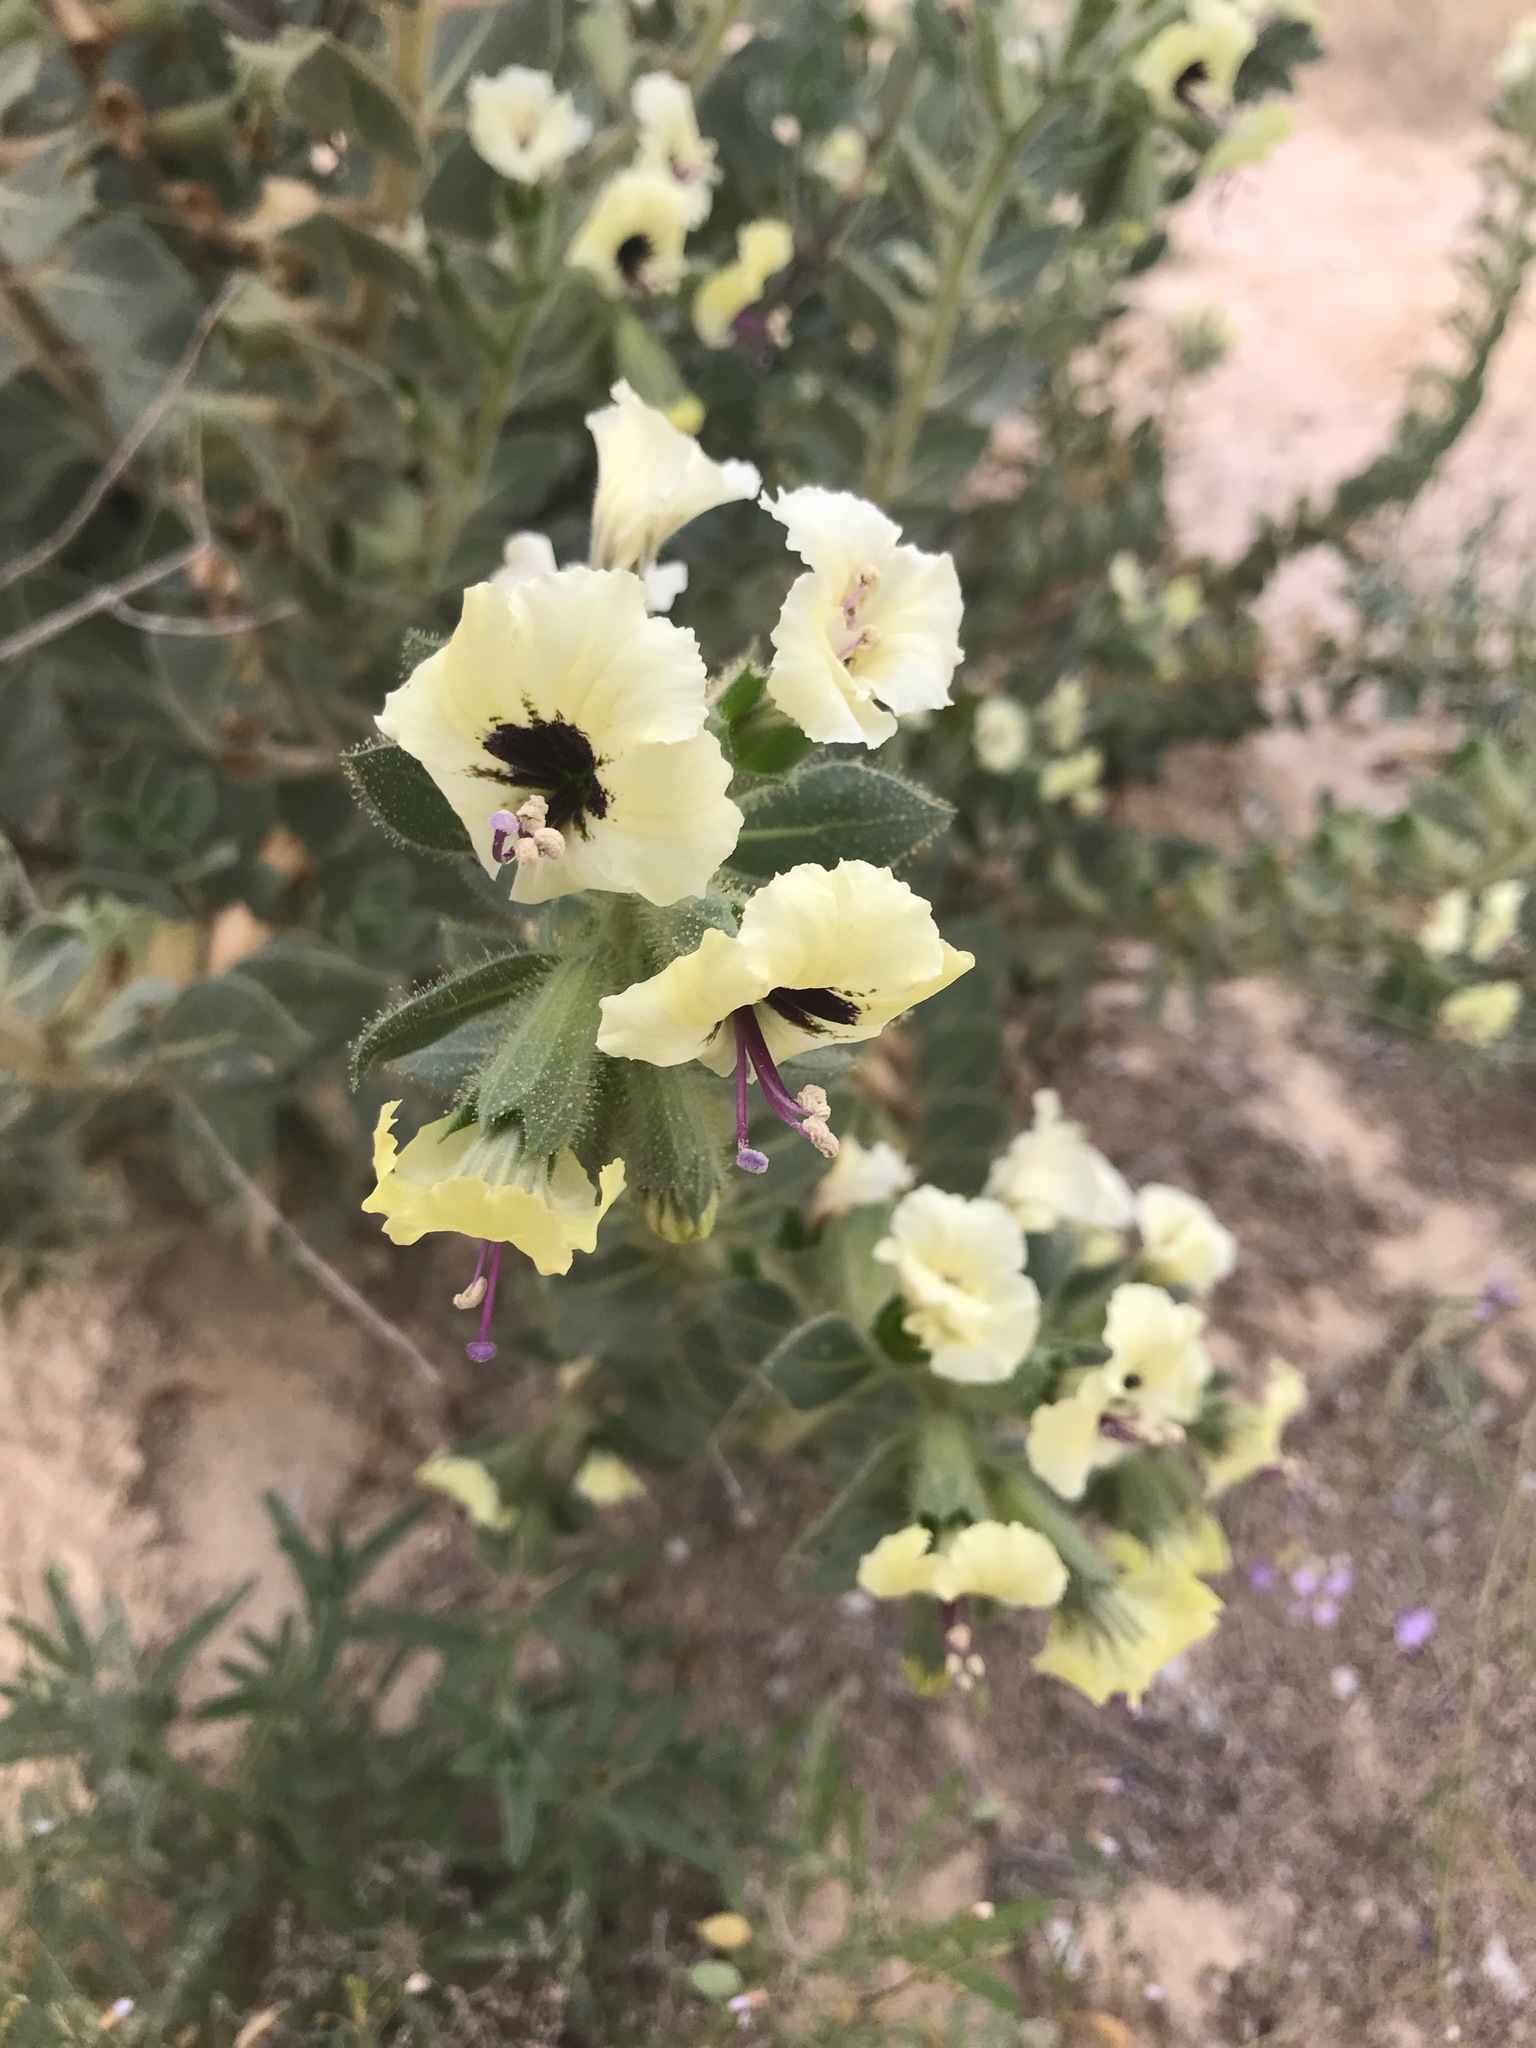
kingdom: Plantae
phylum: Tracheophyta
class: Magnoliopsida
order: Solanales
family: Solanaceae
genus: Hyoscyamus
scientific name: Hyoscyamus desertorum
